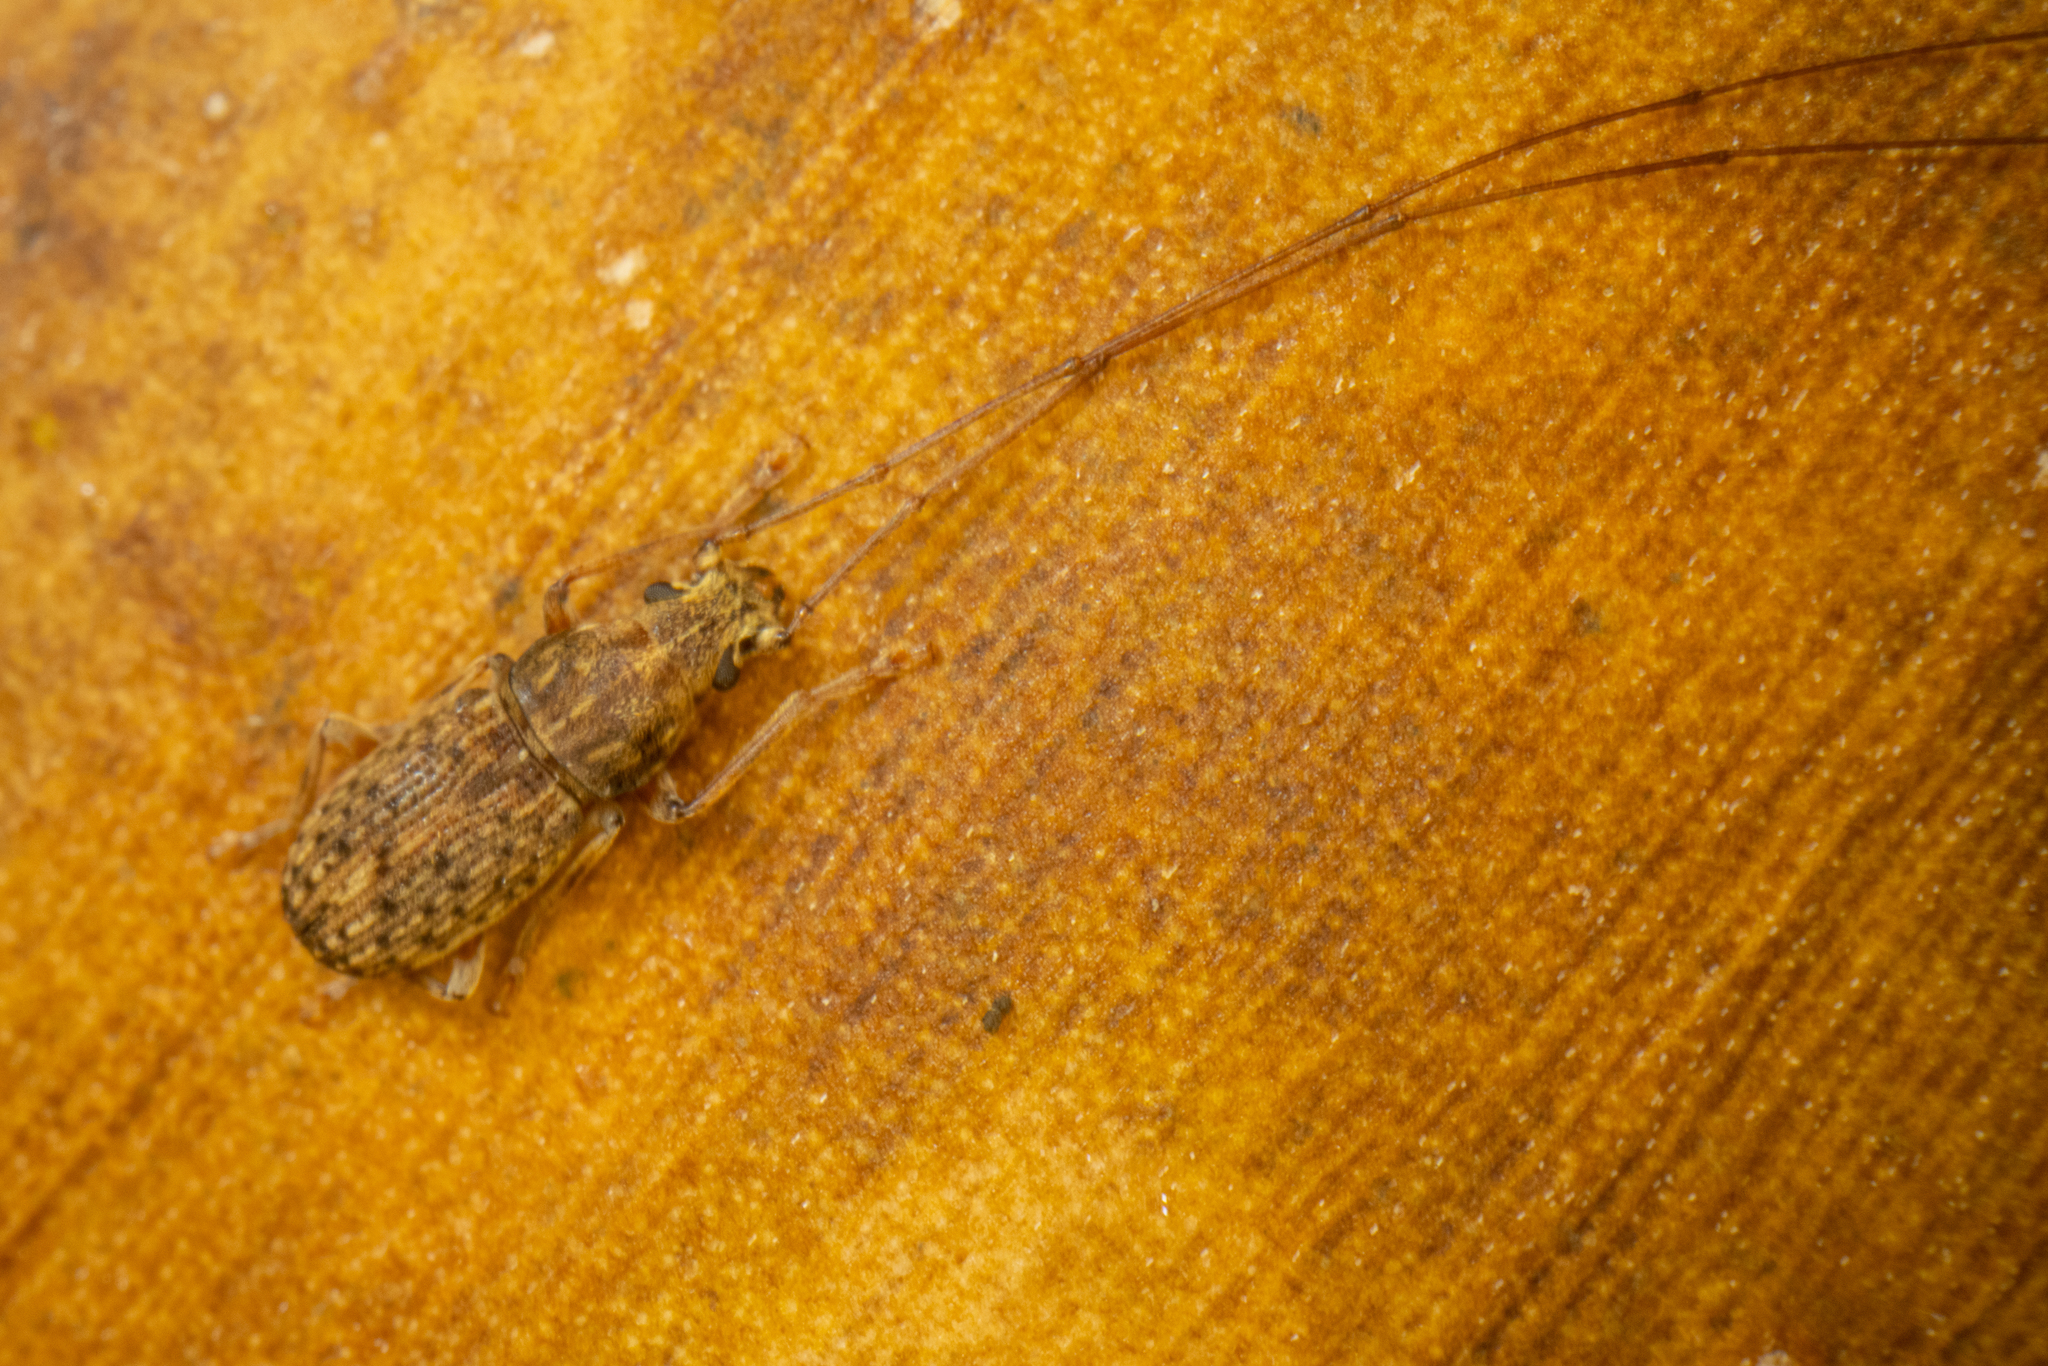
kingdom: Animalia
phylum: Arthropoda
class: Insecta
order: Coleoptera
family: Anthribidae
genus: Arecopais
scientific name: Arecopais spectabilis
